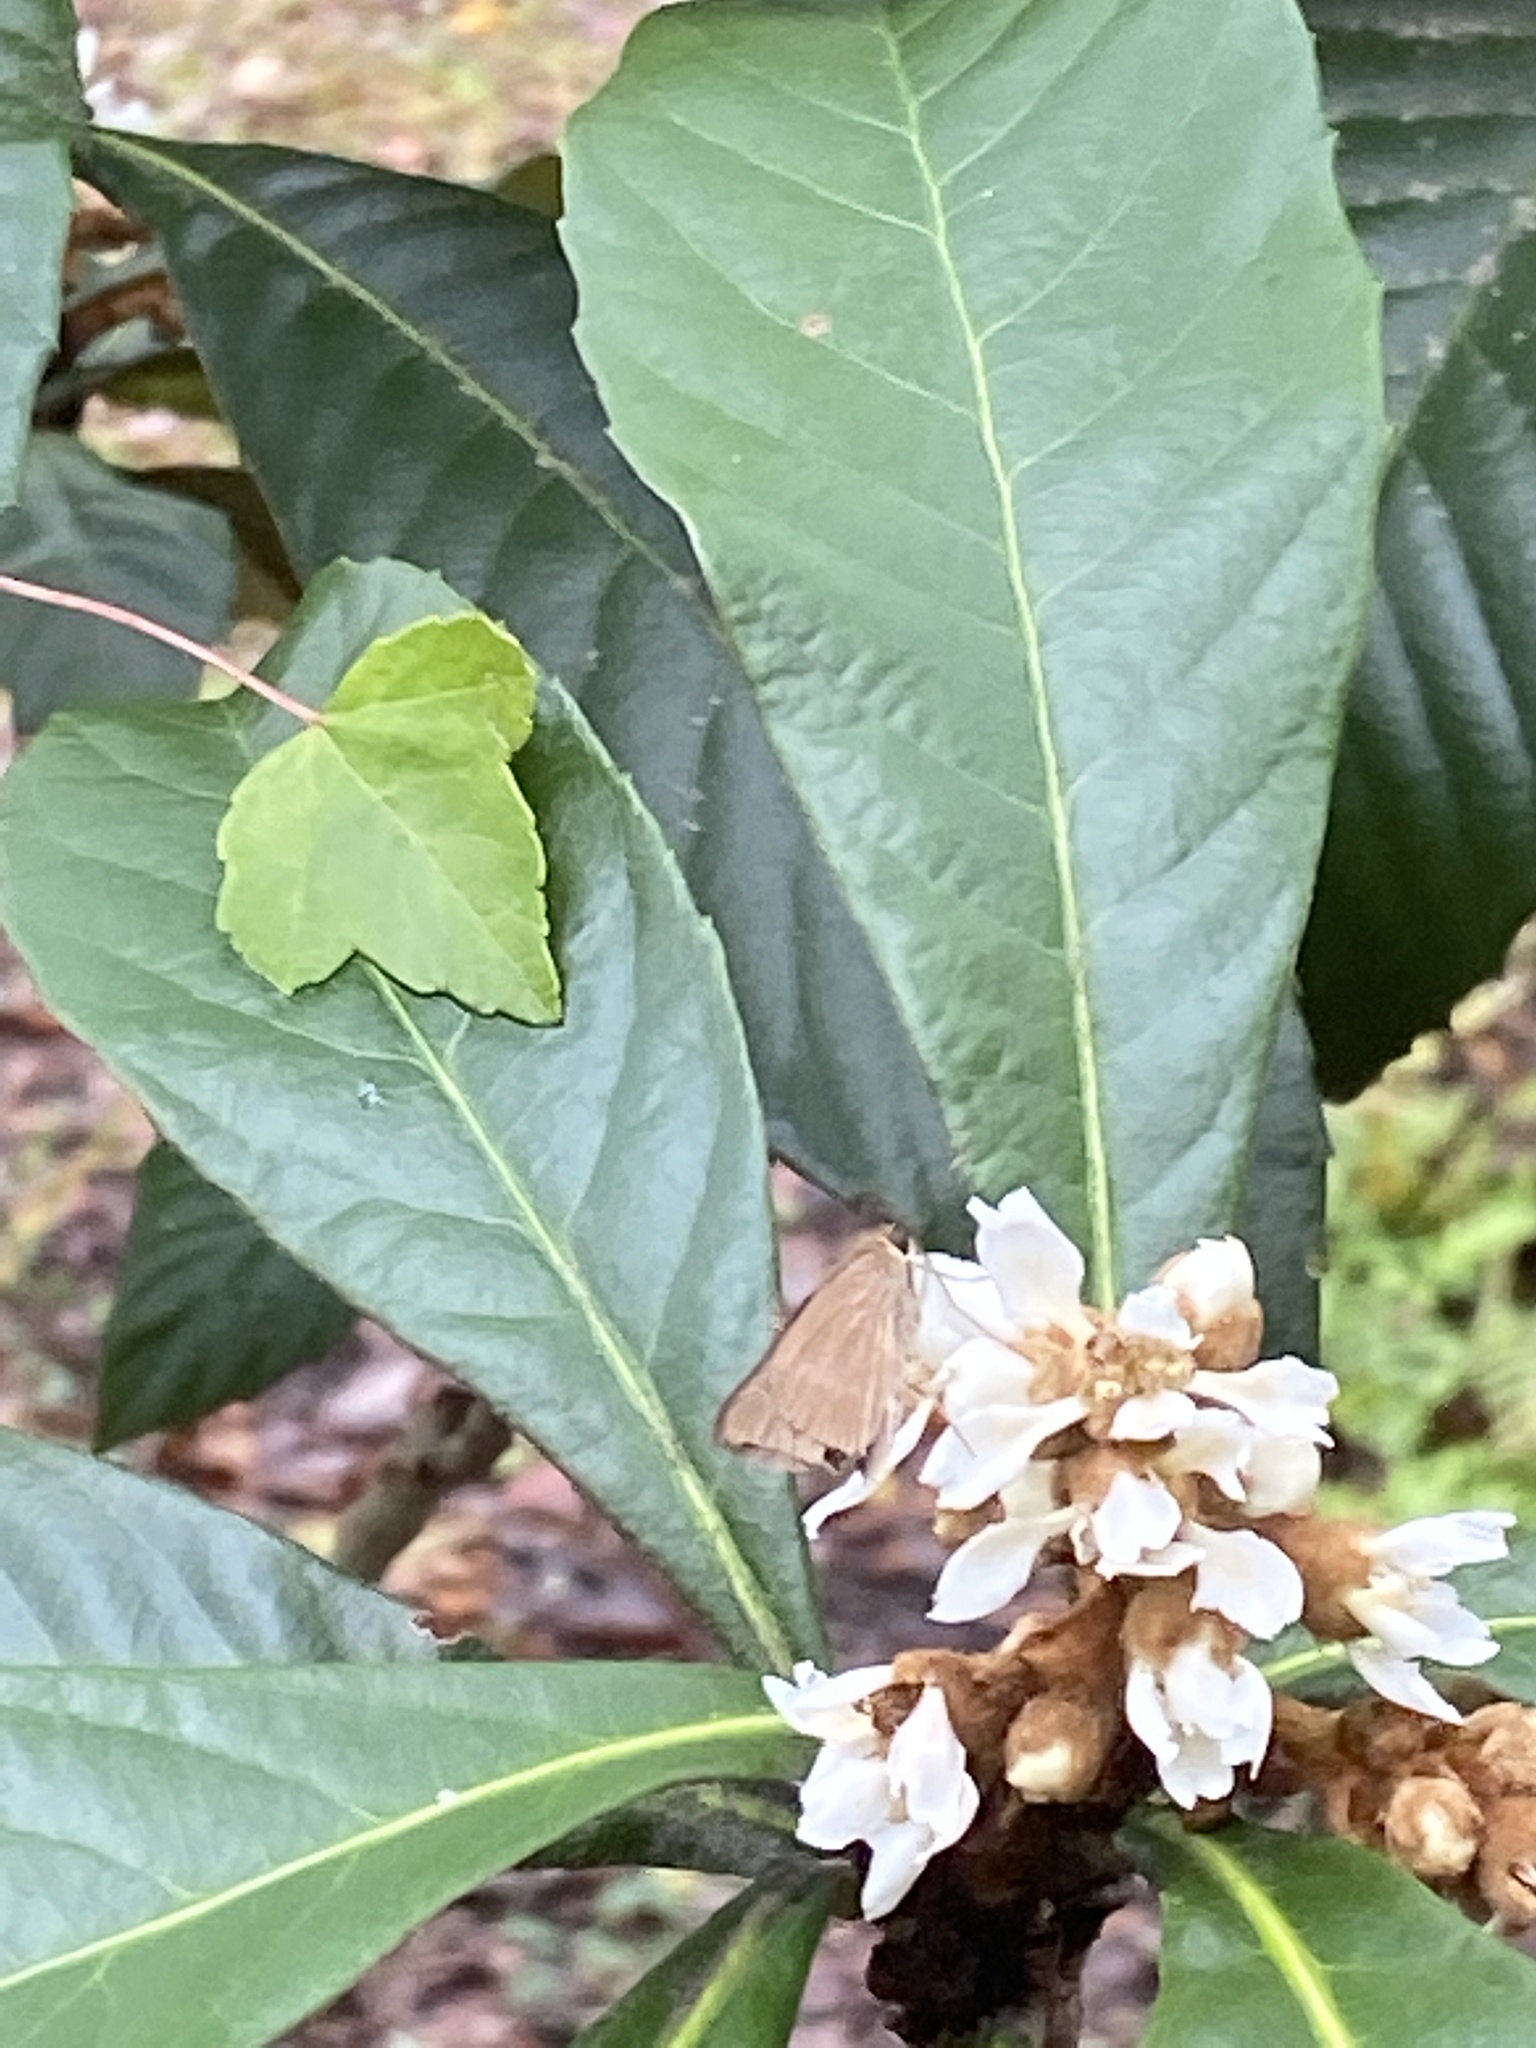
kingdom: Animalia
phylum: Arthropoda
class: Insecta
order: Lepidoptera
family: Hesperiidae
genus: Panoquina
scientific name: Panoquina ocola
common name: Ocola skipper
